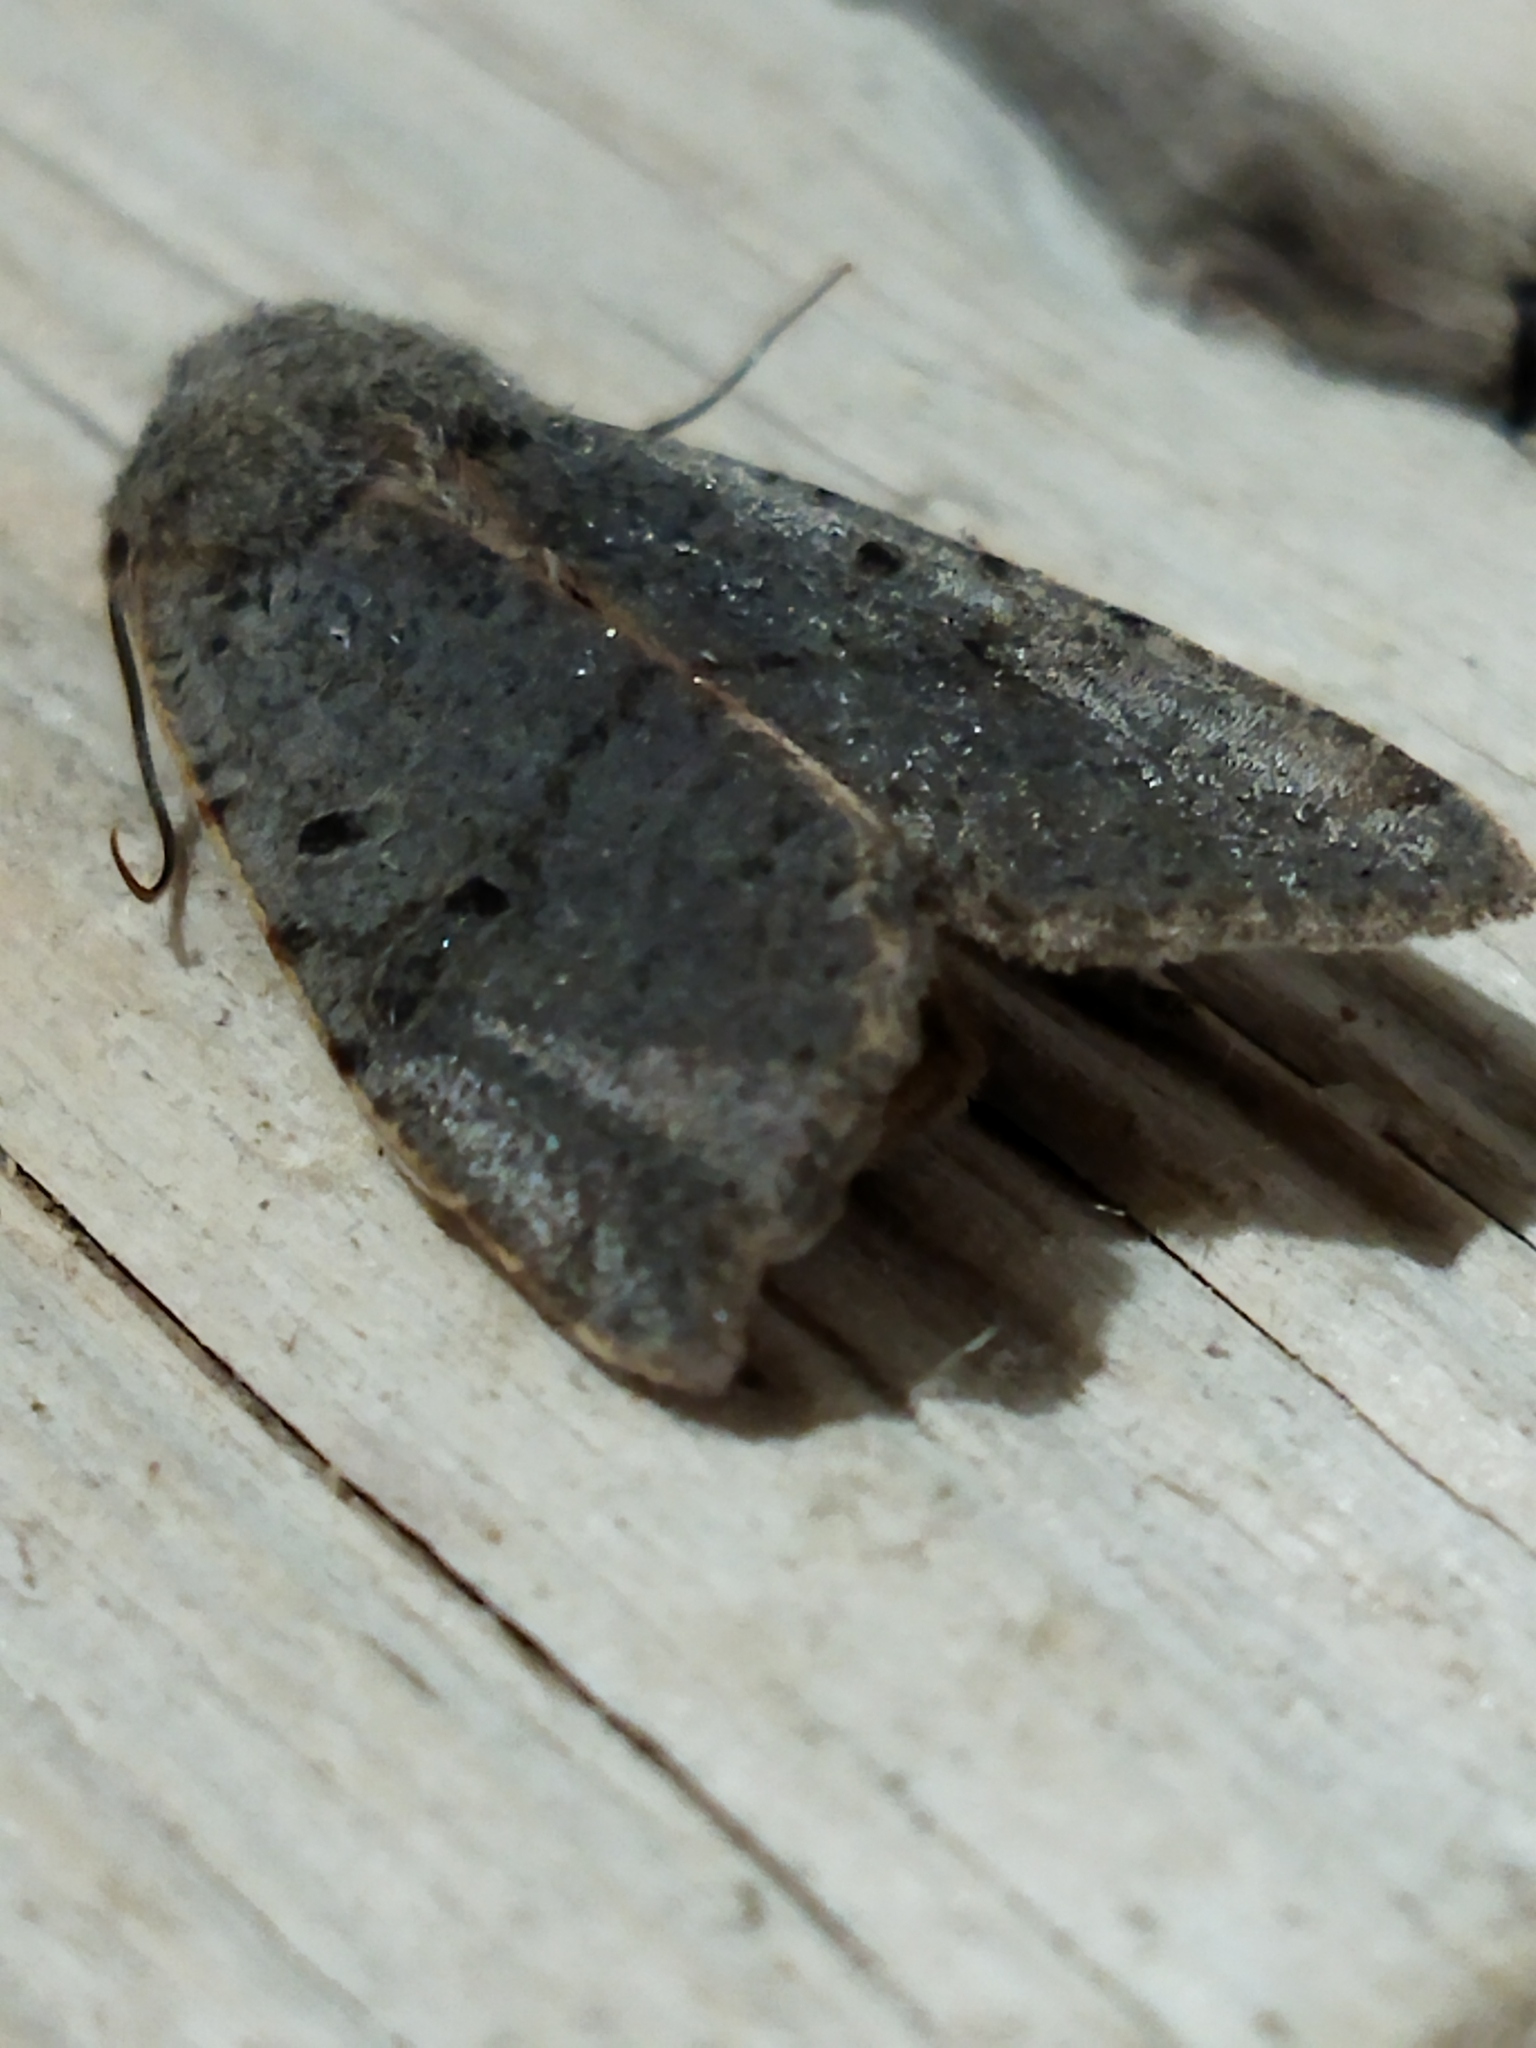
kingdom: Animalia
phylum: Arthropoda
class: Insecta
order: Lepidoptera
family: Noctuidae
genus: Agrochola
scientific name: Agrochola lychnidis
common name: Beaded chestnut
